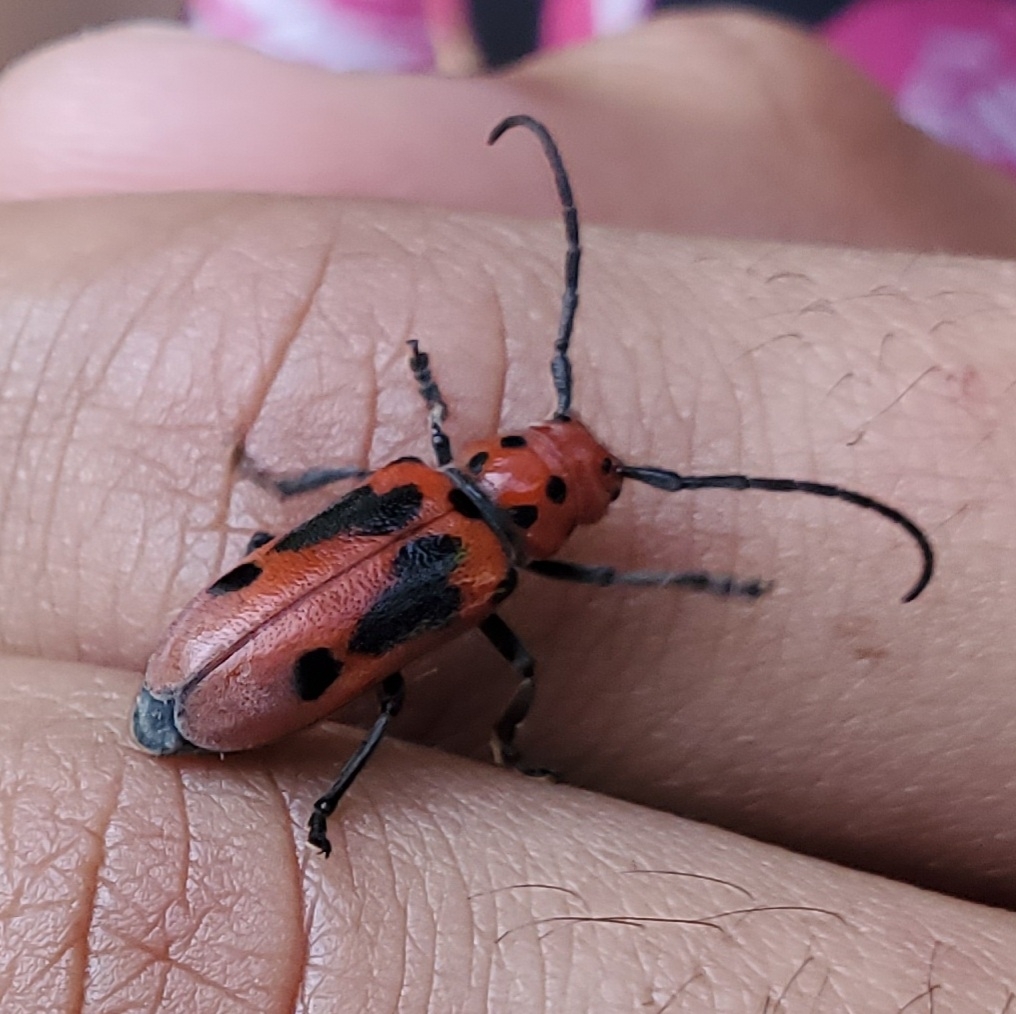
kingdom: Animalia
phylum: Arthropoda
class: Insecta
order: Coleoptera
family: Cerambycidae
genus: Tetraopes
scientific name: Tetraopes tetrophthalmus
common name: Red milkweed beetle
